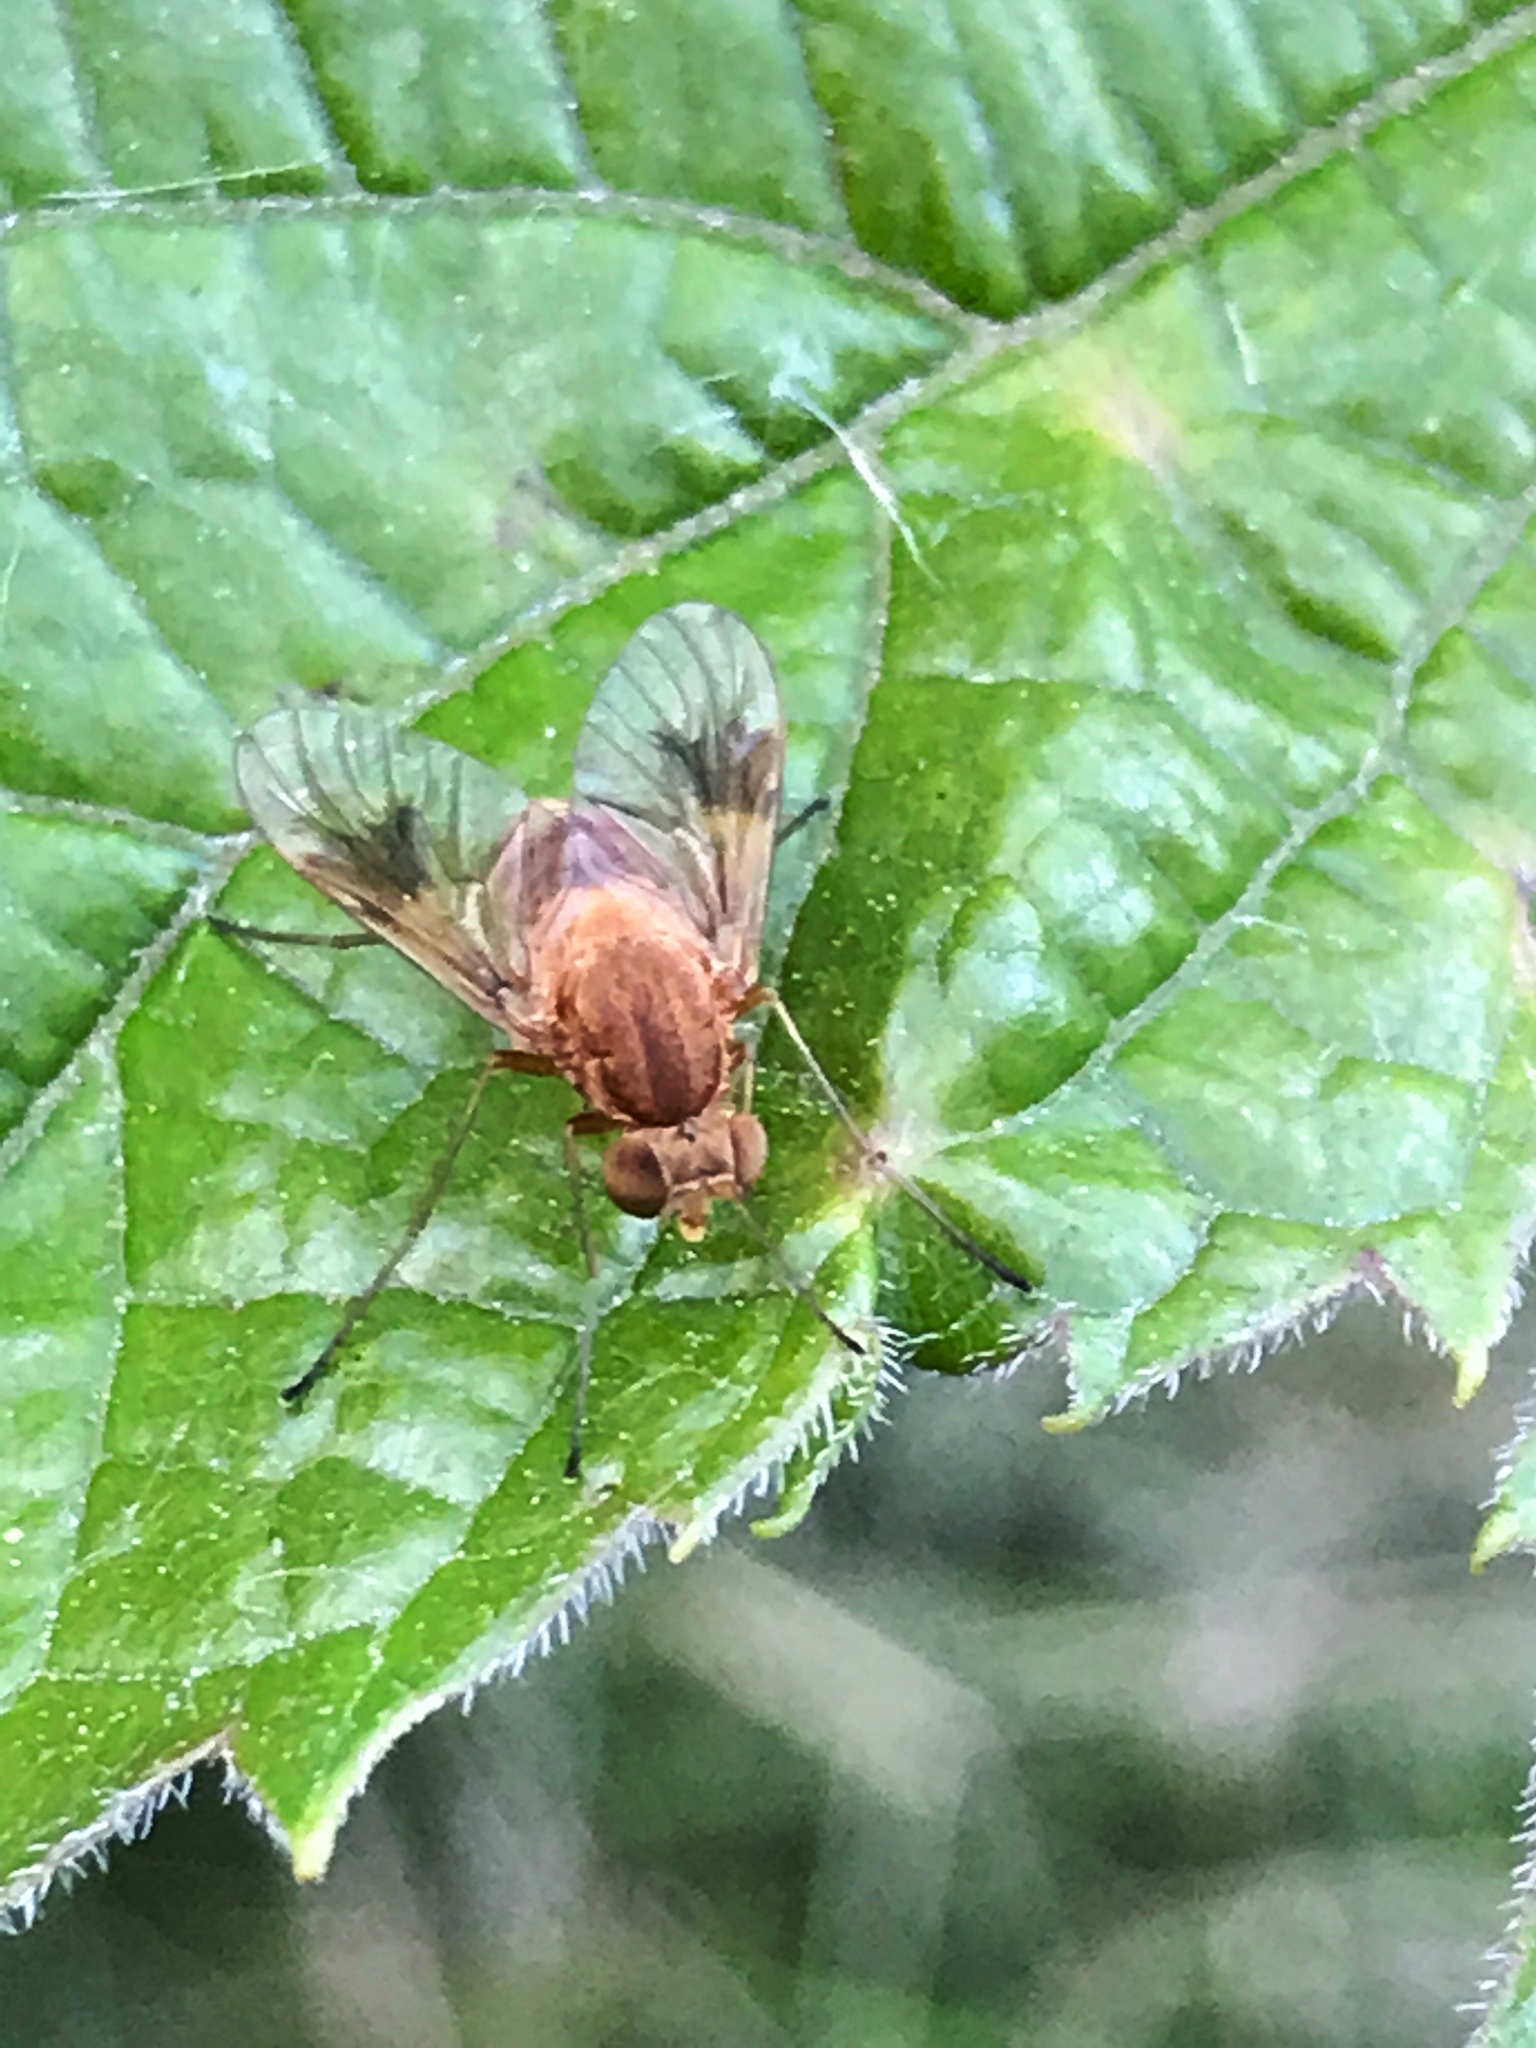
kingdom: Animalia
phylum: Arthropoda
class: Insecta
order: Diptera
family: Rhagionidae
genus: Chrysopilus
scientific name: Chrysopilus quadratus
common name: Quadrate snipe fly
